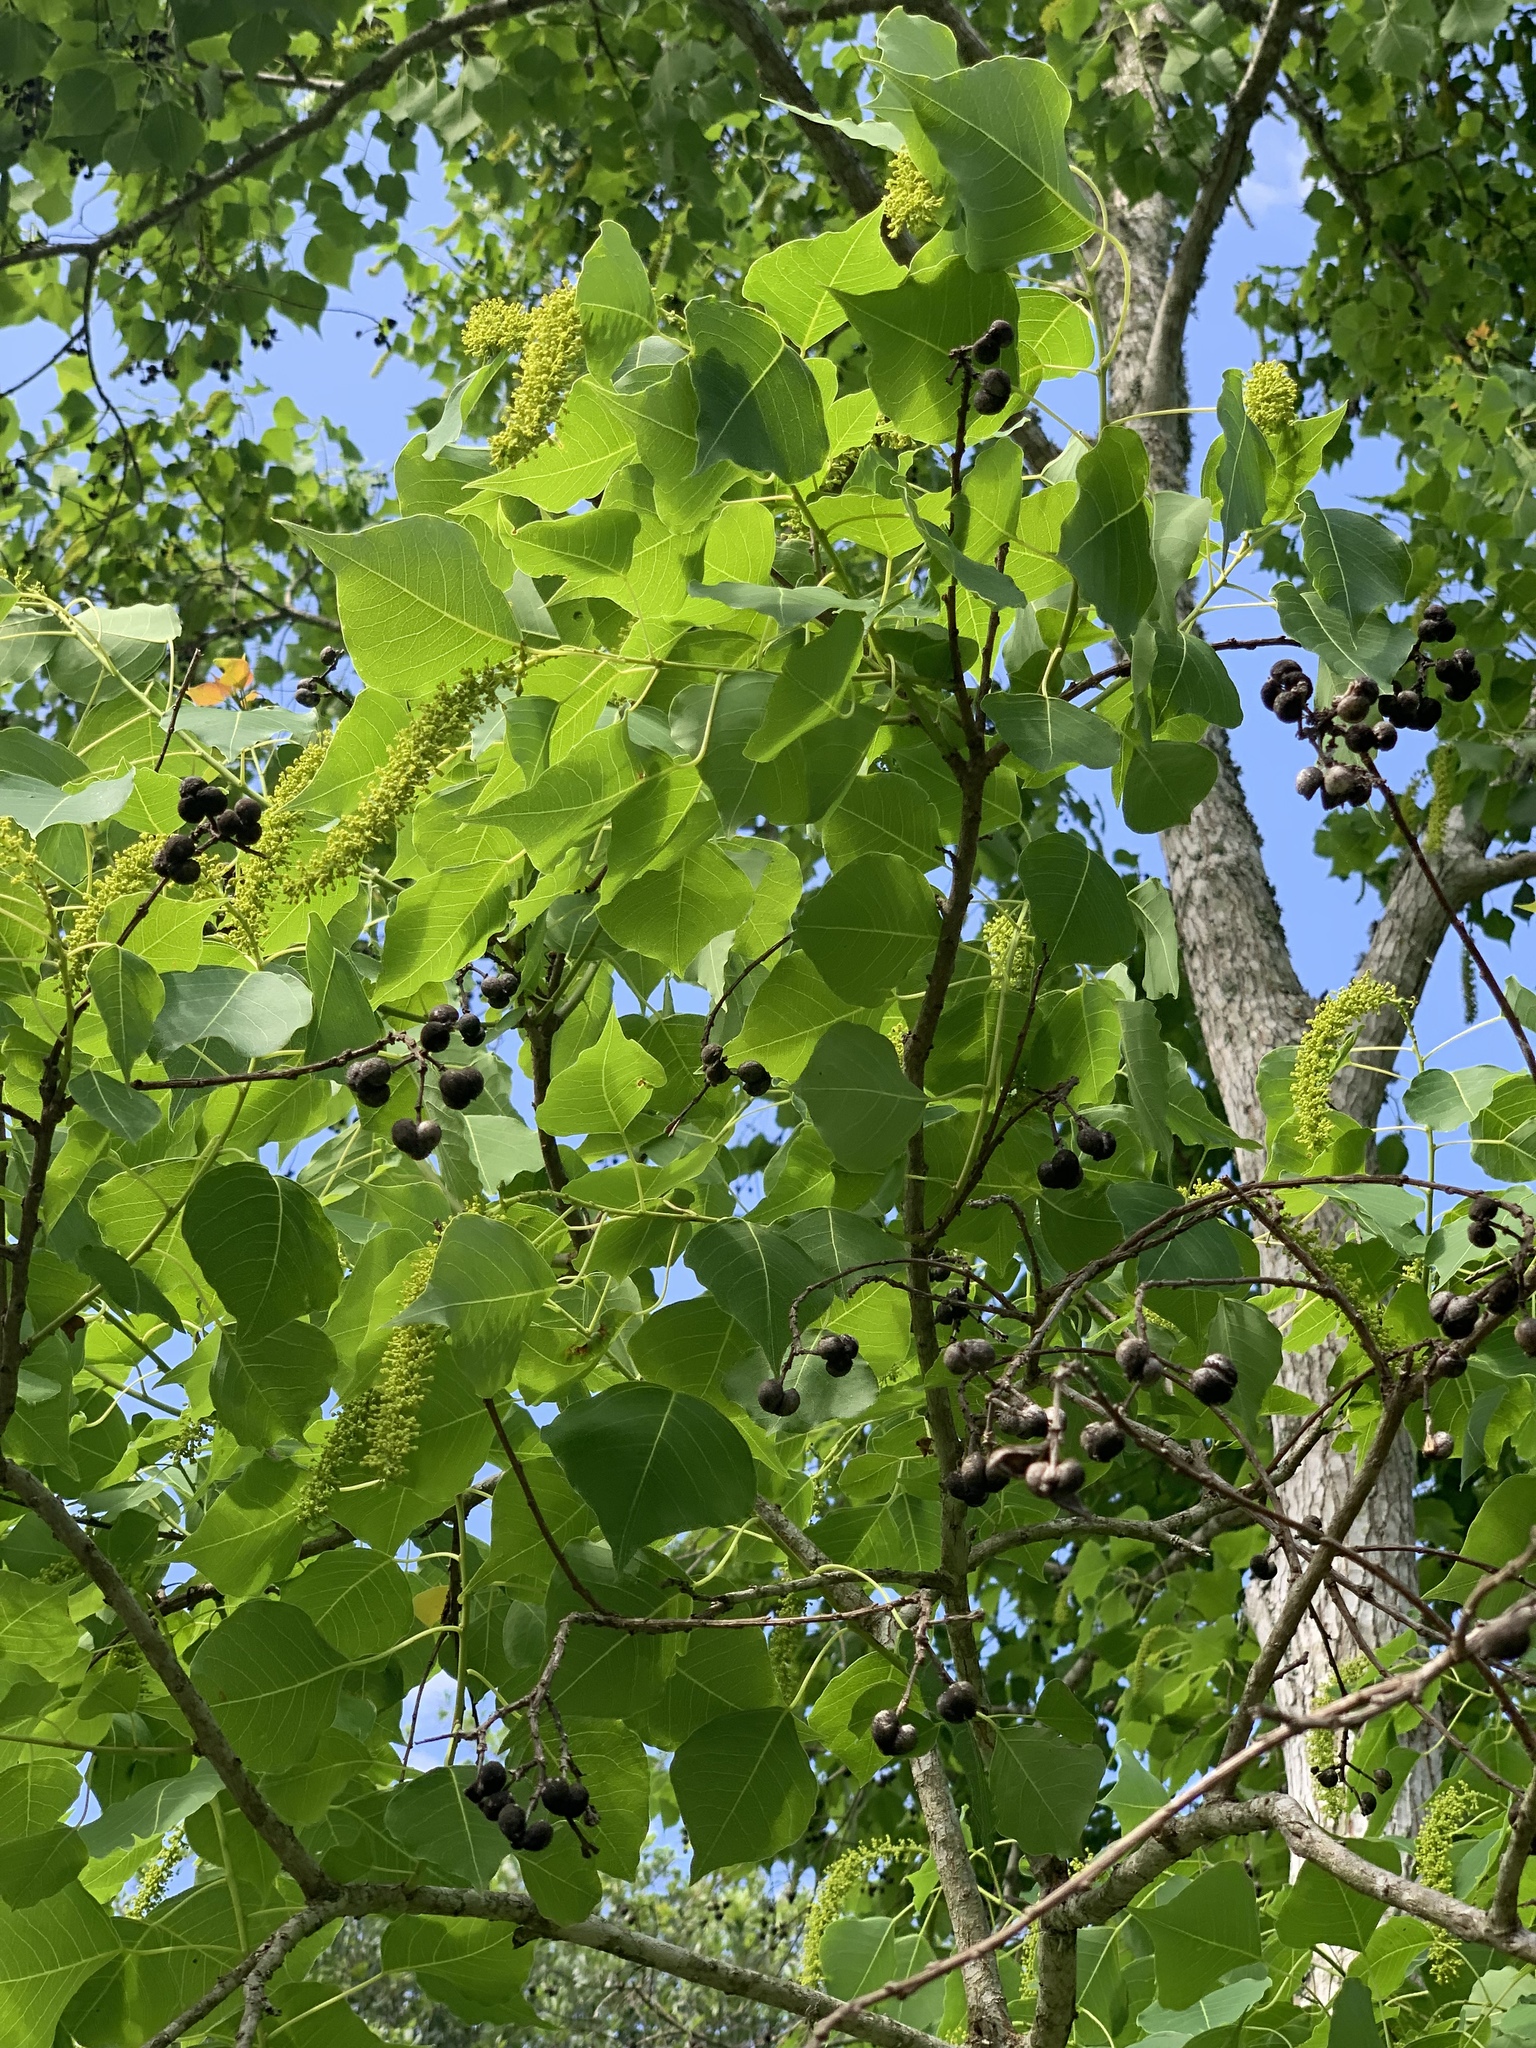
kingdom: Plantae
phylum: Tracheophyta
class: Magnoliopsida
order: Malpighiales
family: Euphorbiaceae
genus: Triadica
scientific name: Triadica sebifera
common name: Chinese tallow
